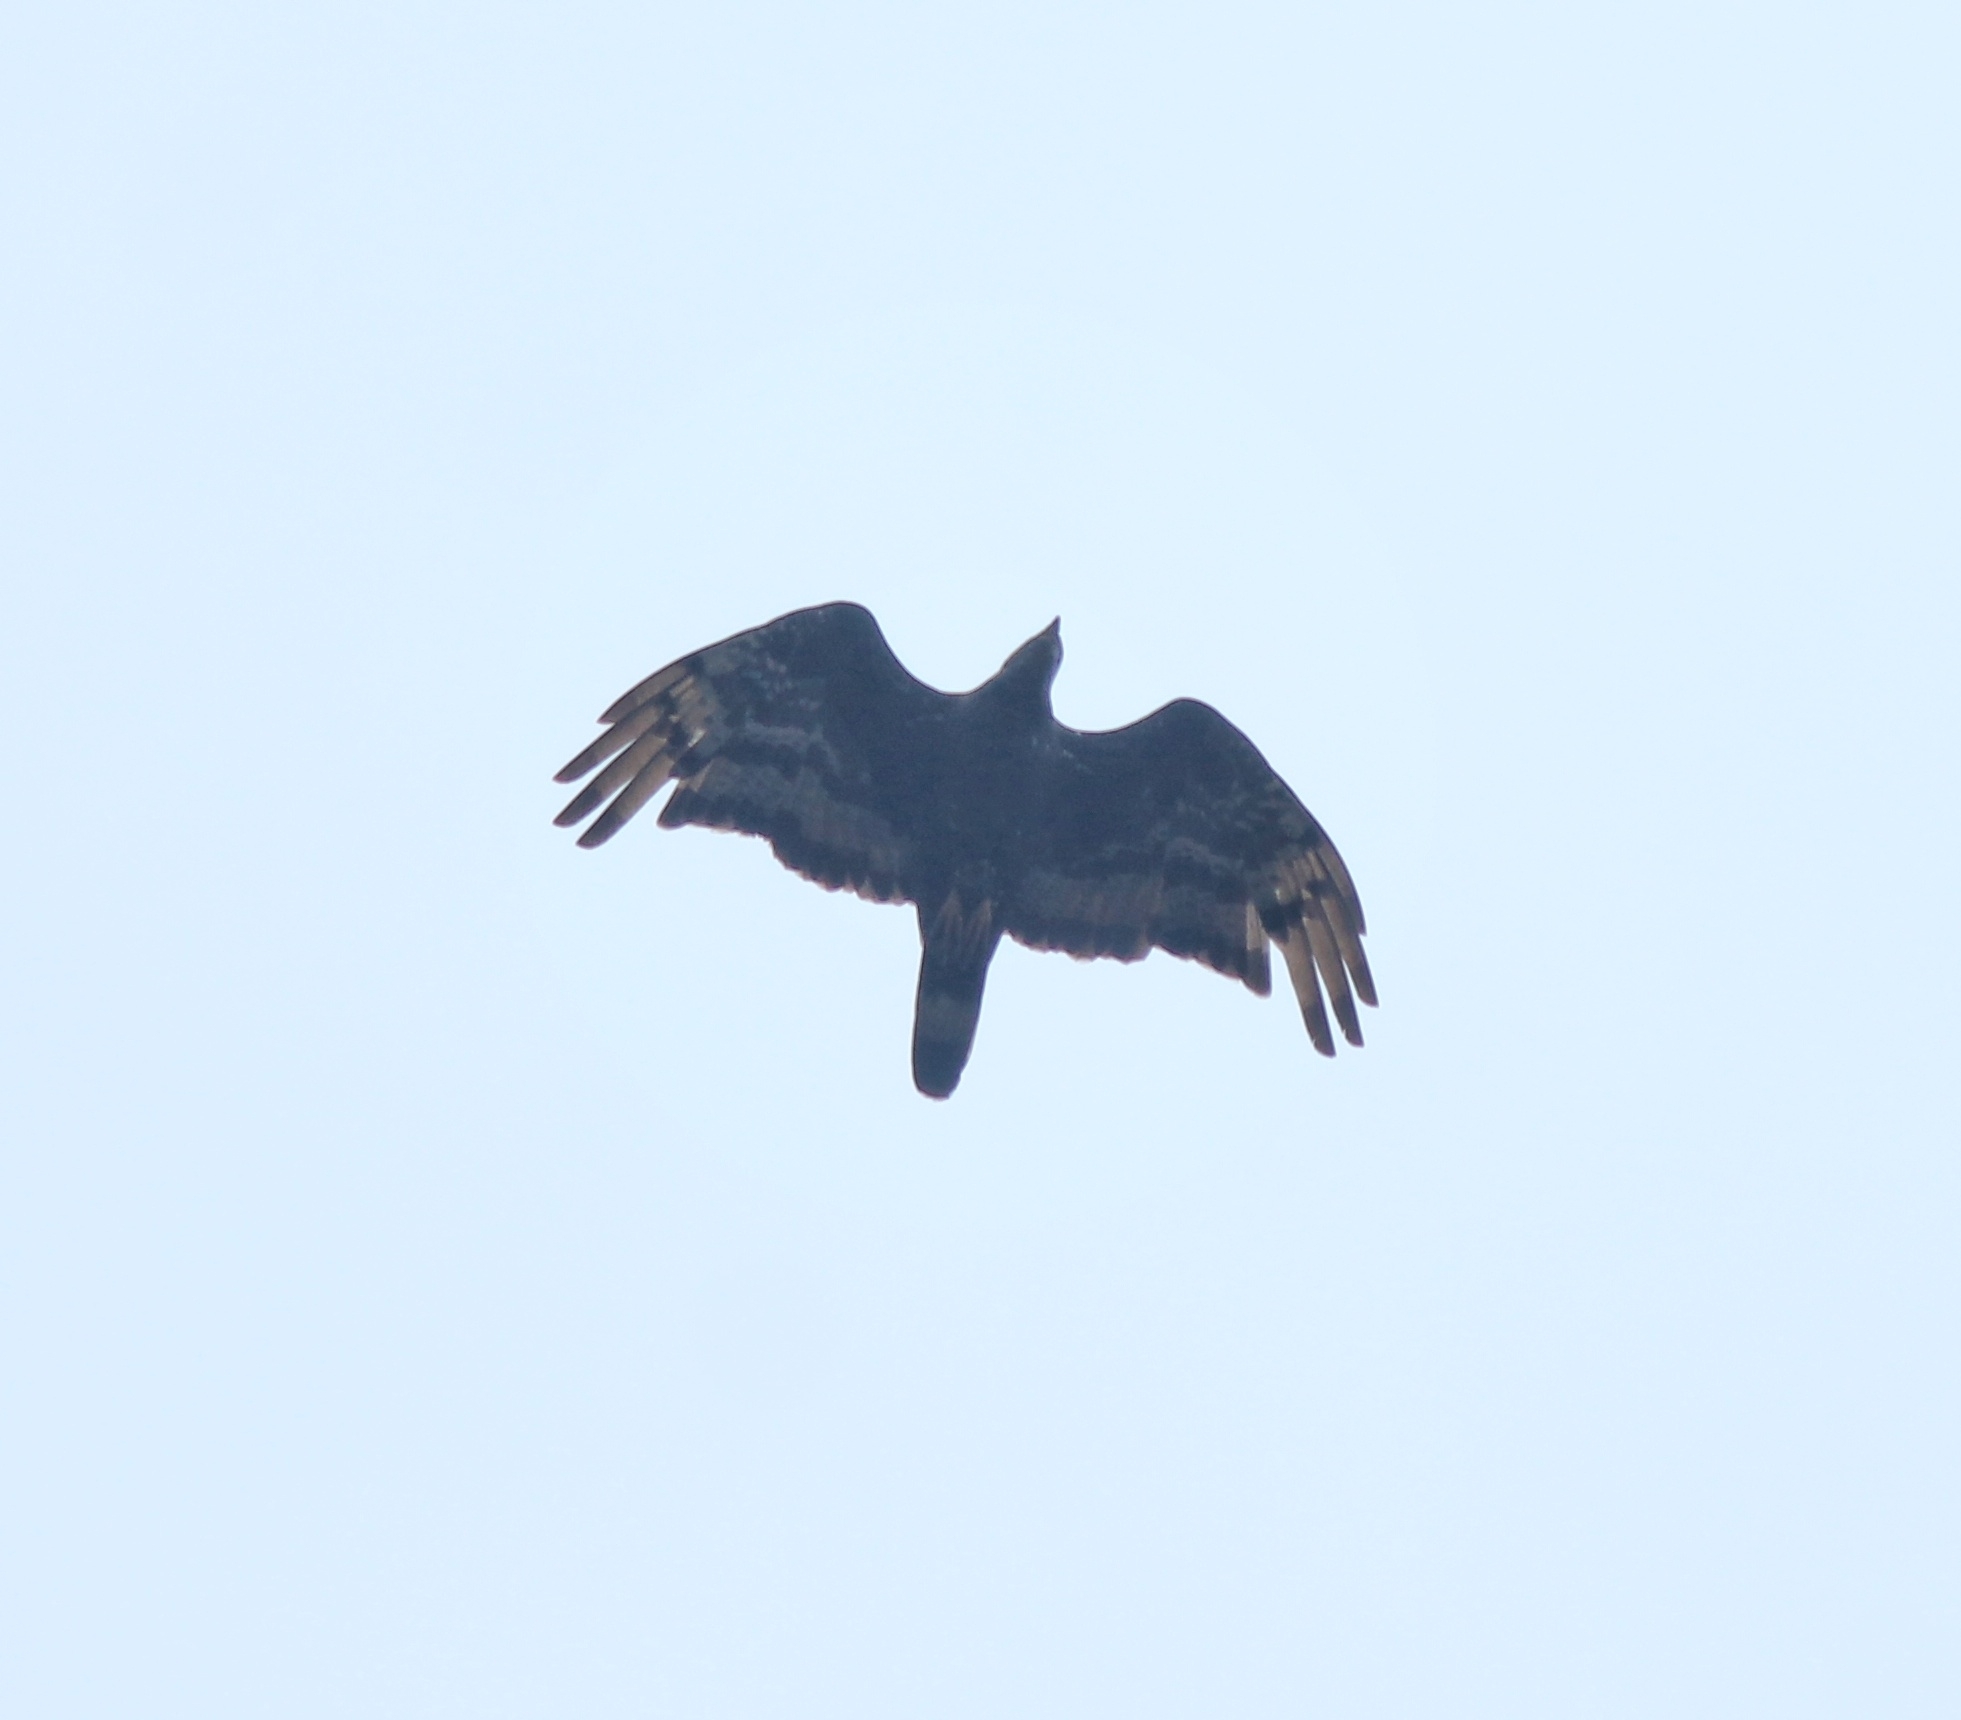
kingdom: Animalia
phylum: Chordata
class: Aves
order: Accipitriformes
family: Accipitridae
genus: Pernis
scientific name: Pernis ptilorhynchus
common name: Crested honey buzzard
